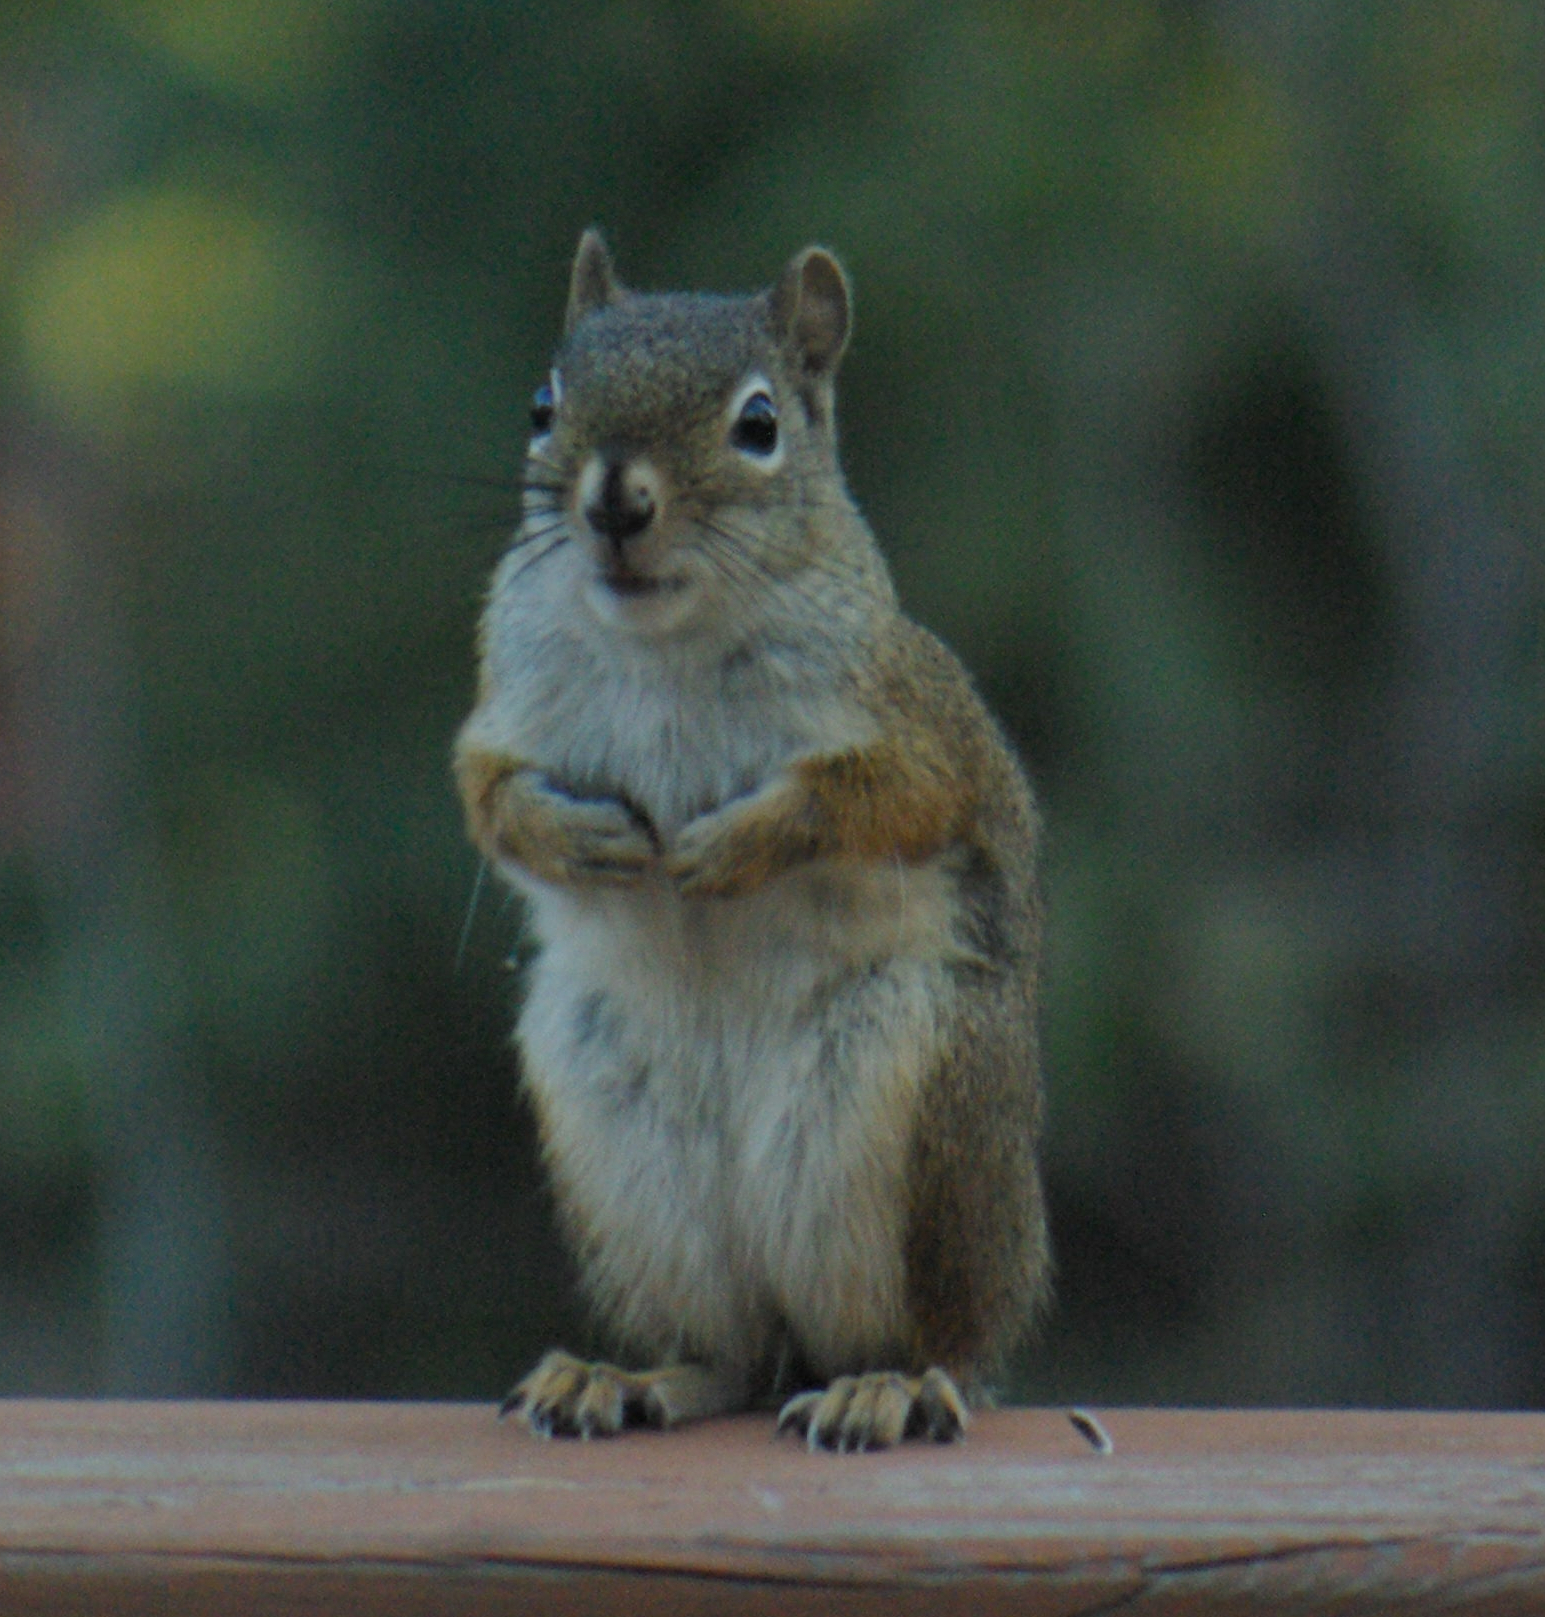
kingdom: Animalia
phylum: Chordata
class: Mammalia
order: Rodentia
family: Sciuridae
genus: Tamiasciurus
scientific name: Tamiasciurus hudsonicus
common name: Red squirrel
